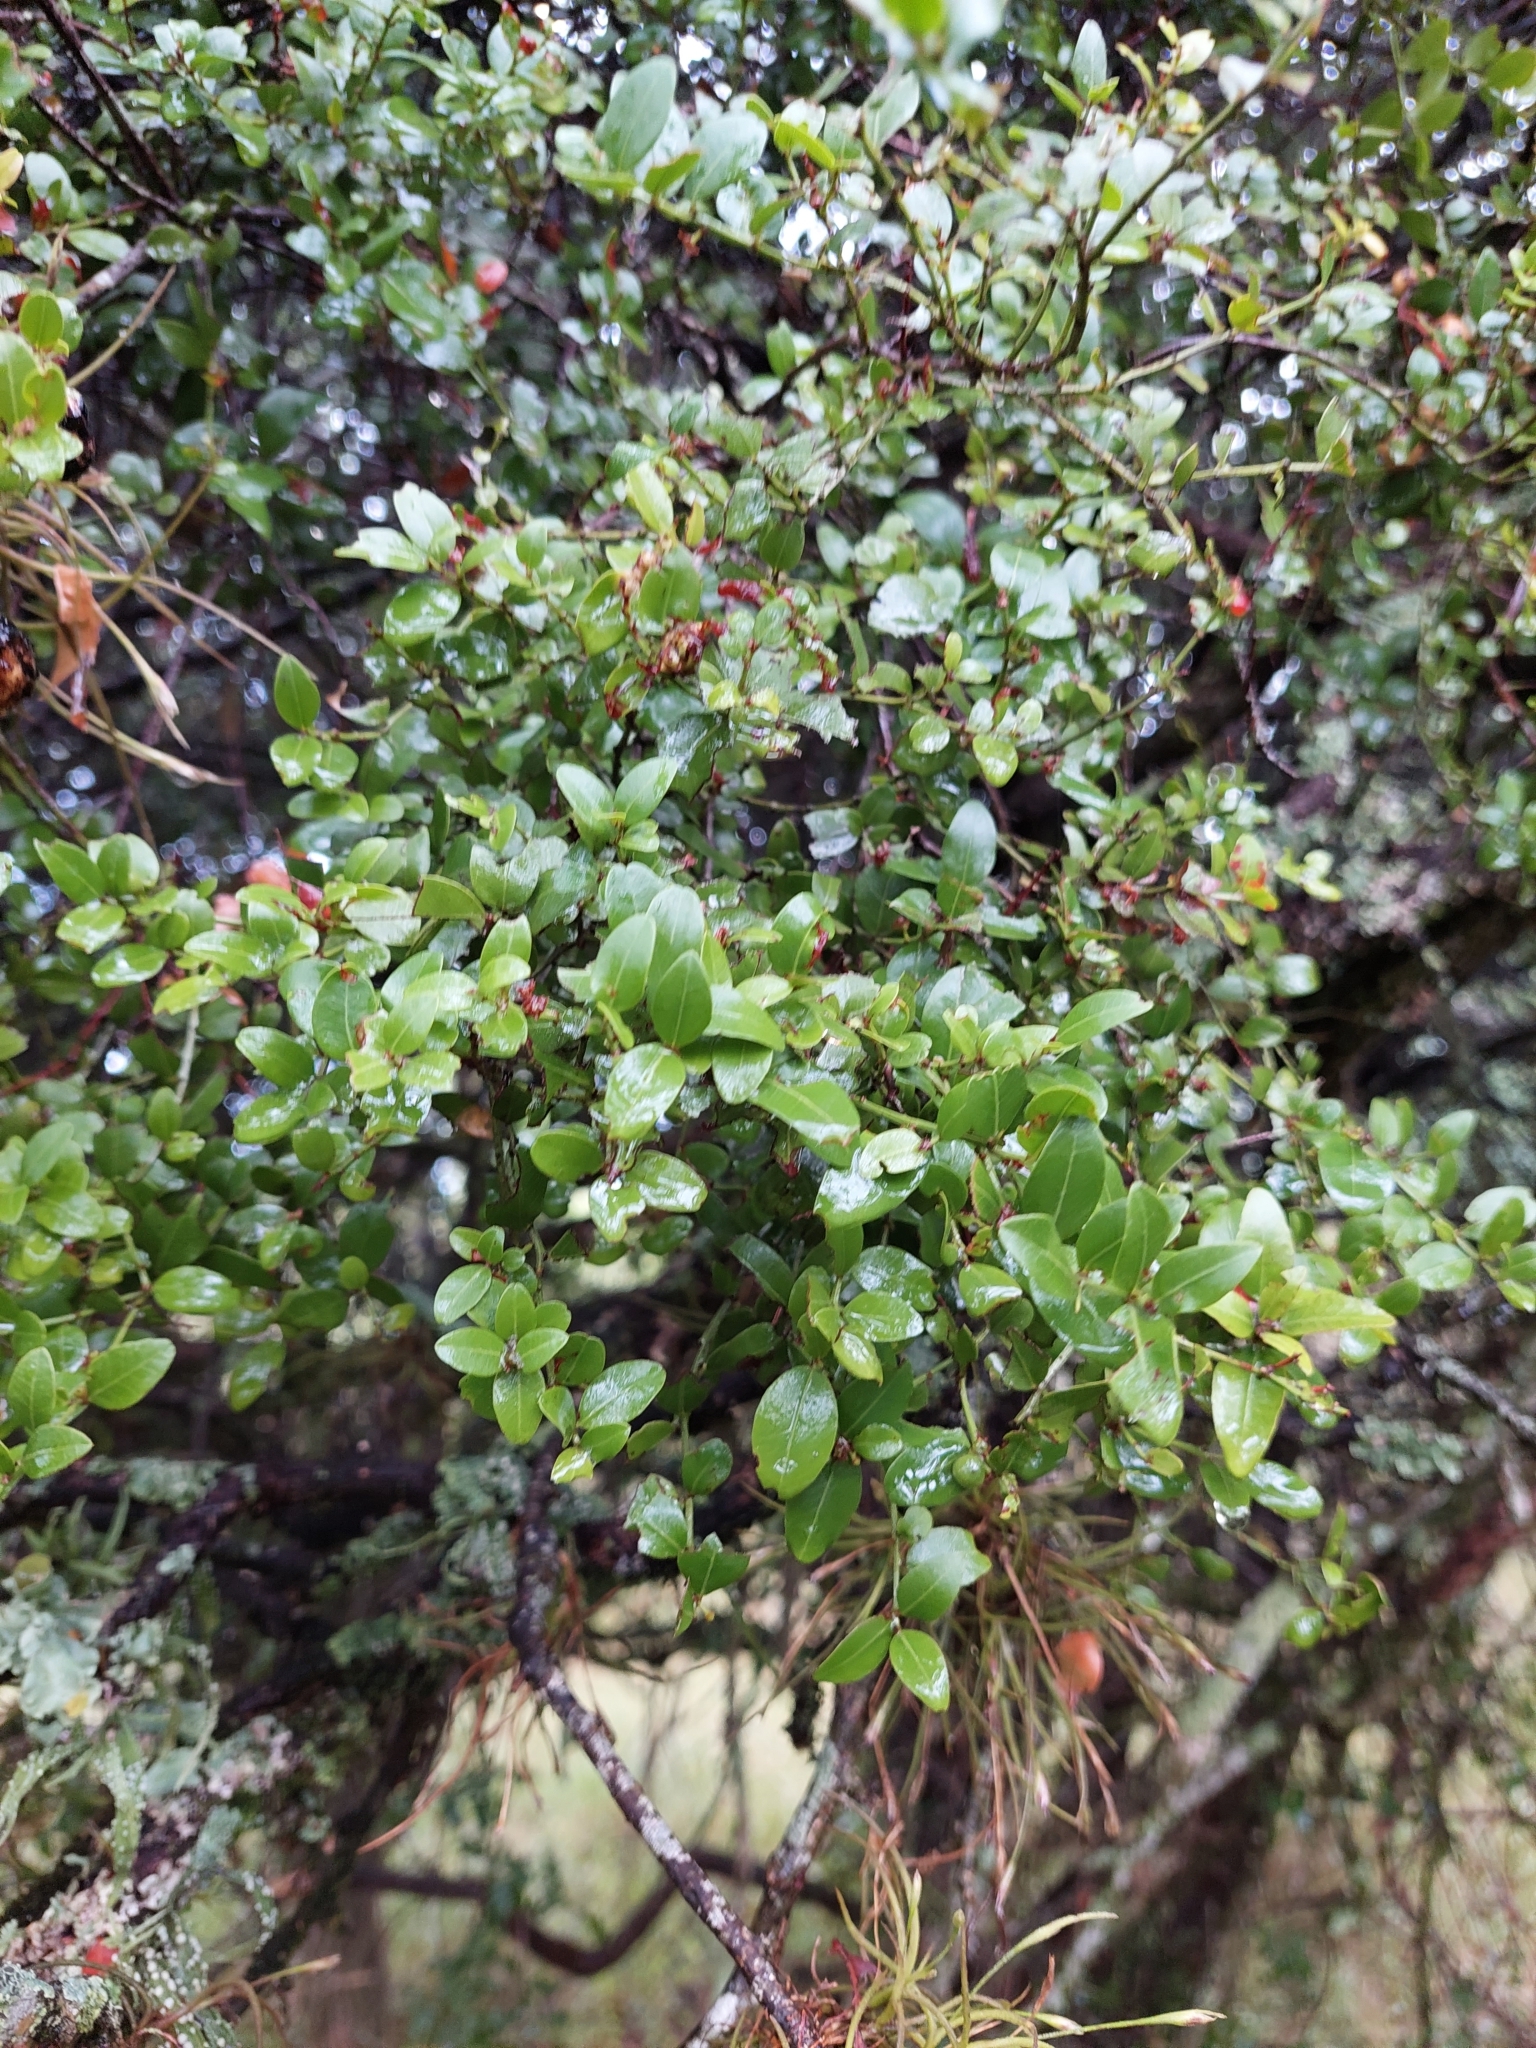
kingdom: Plantae
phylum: Tracheophyta
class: Magnoliopsida
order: Rosales
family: Rhamnaceae
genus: Scutia
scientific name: Scutia buxifolia
